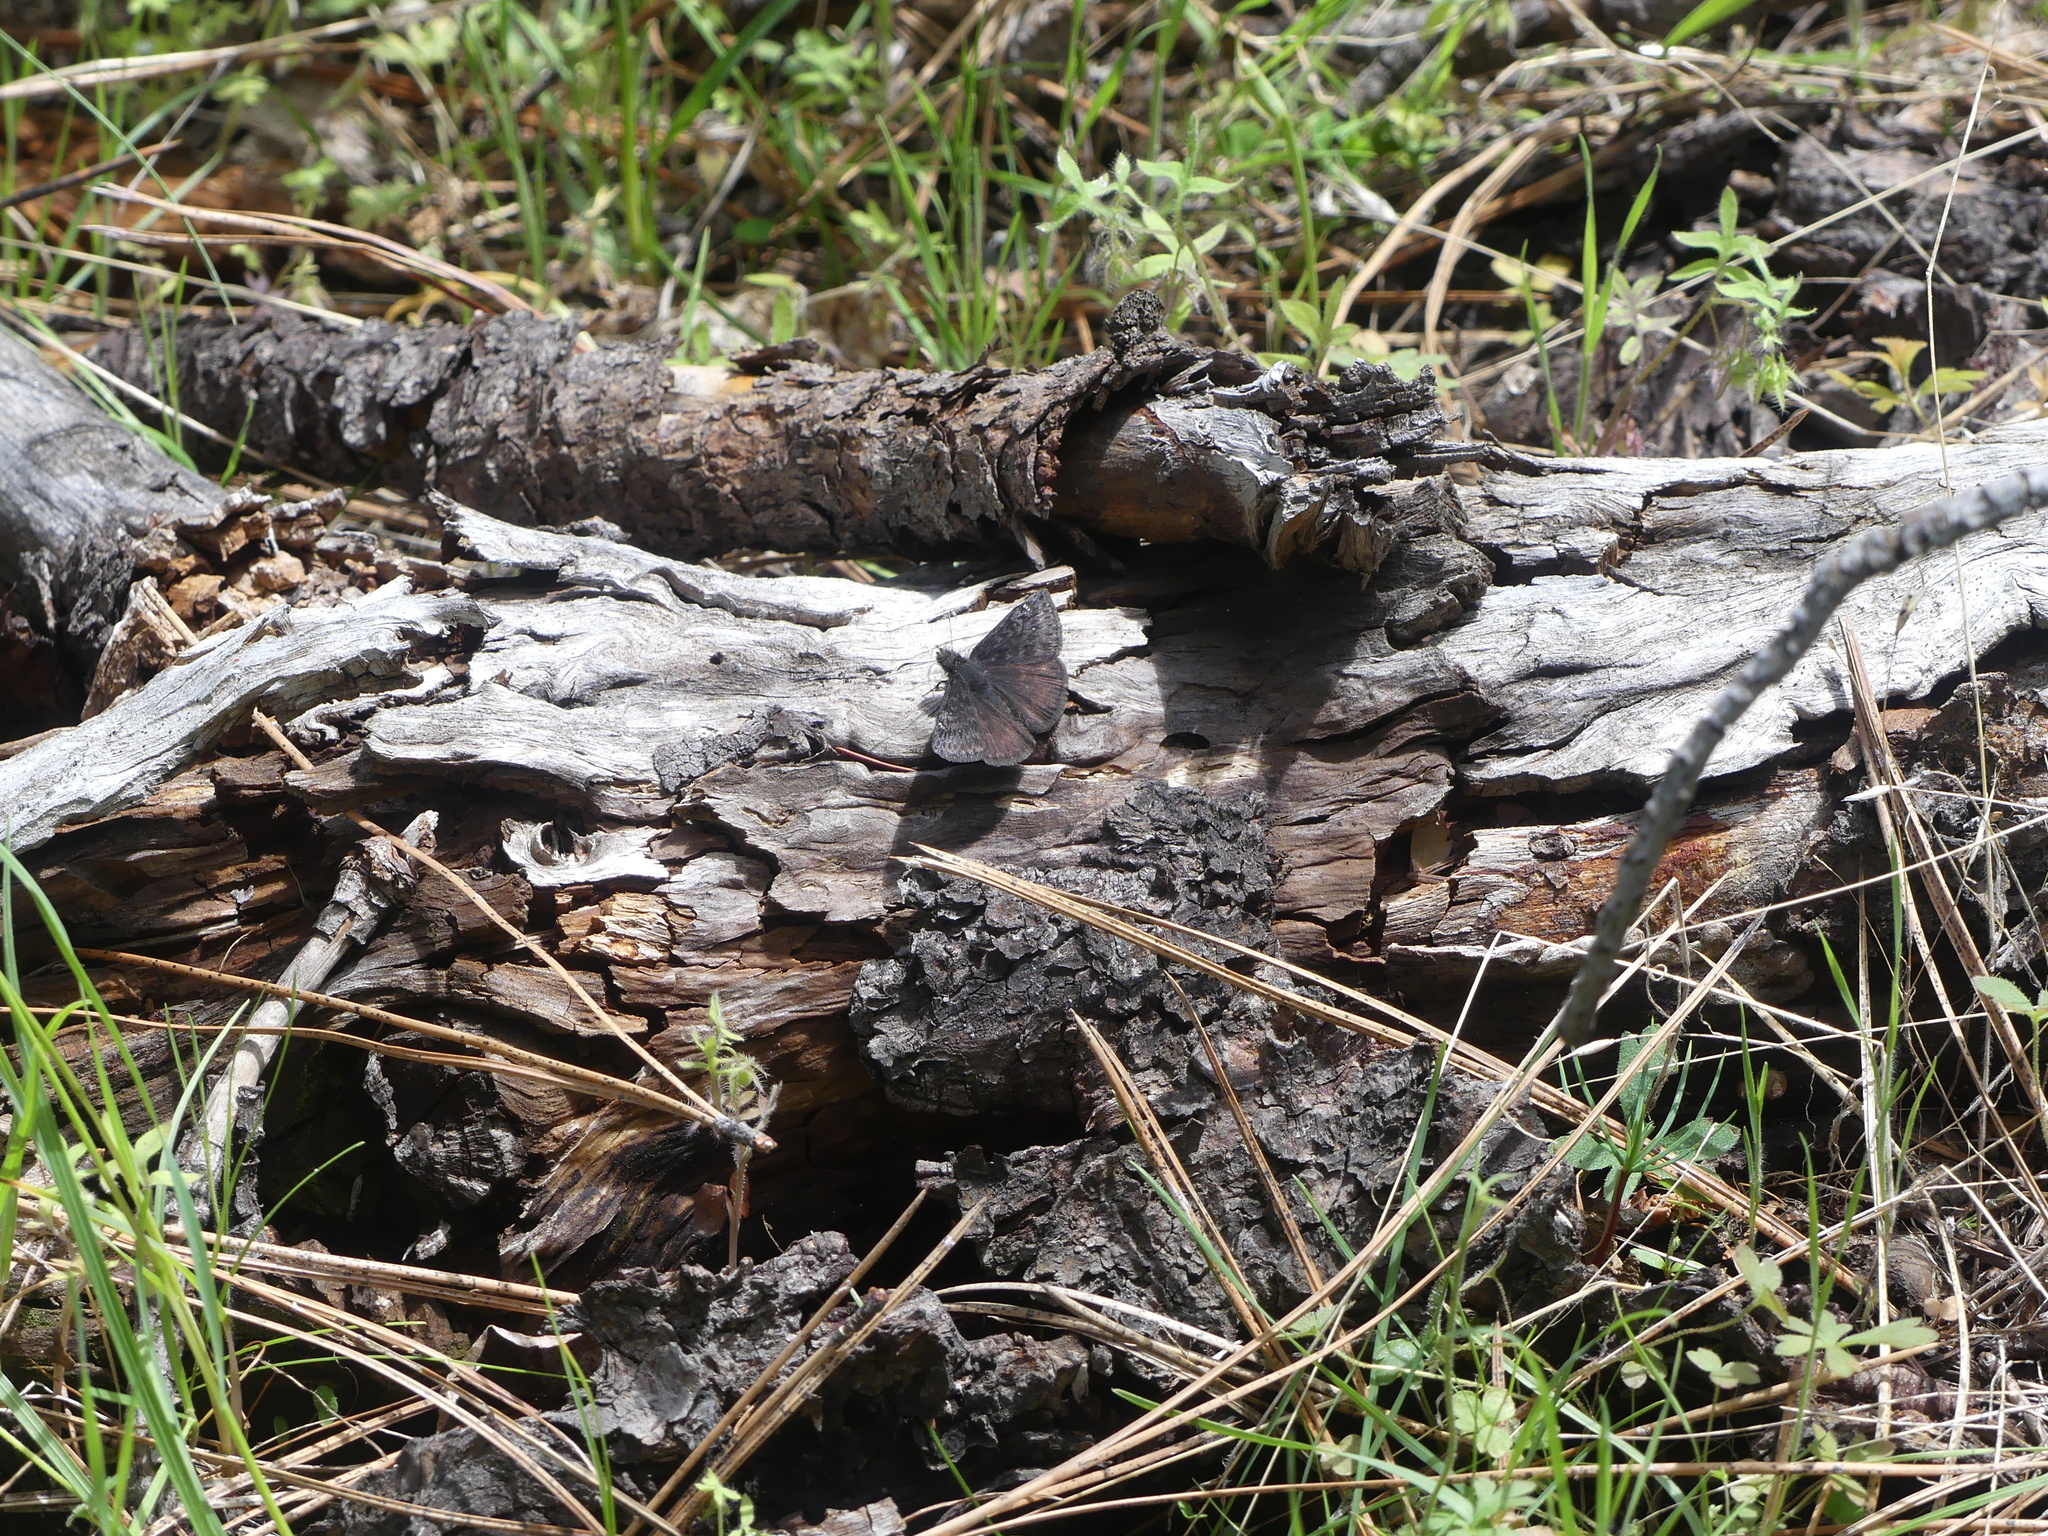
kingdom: Animalia
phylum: Arthropoda
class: Insecta
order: Lepidoptera
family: Hesperiidae
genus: Erynnis
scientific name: Erynnis persius
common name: Persius duskywing
